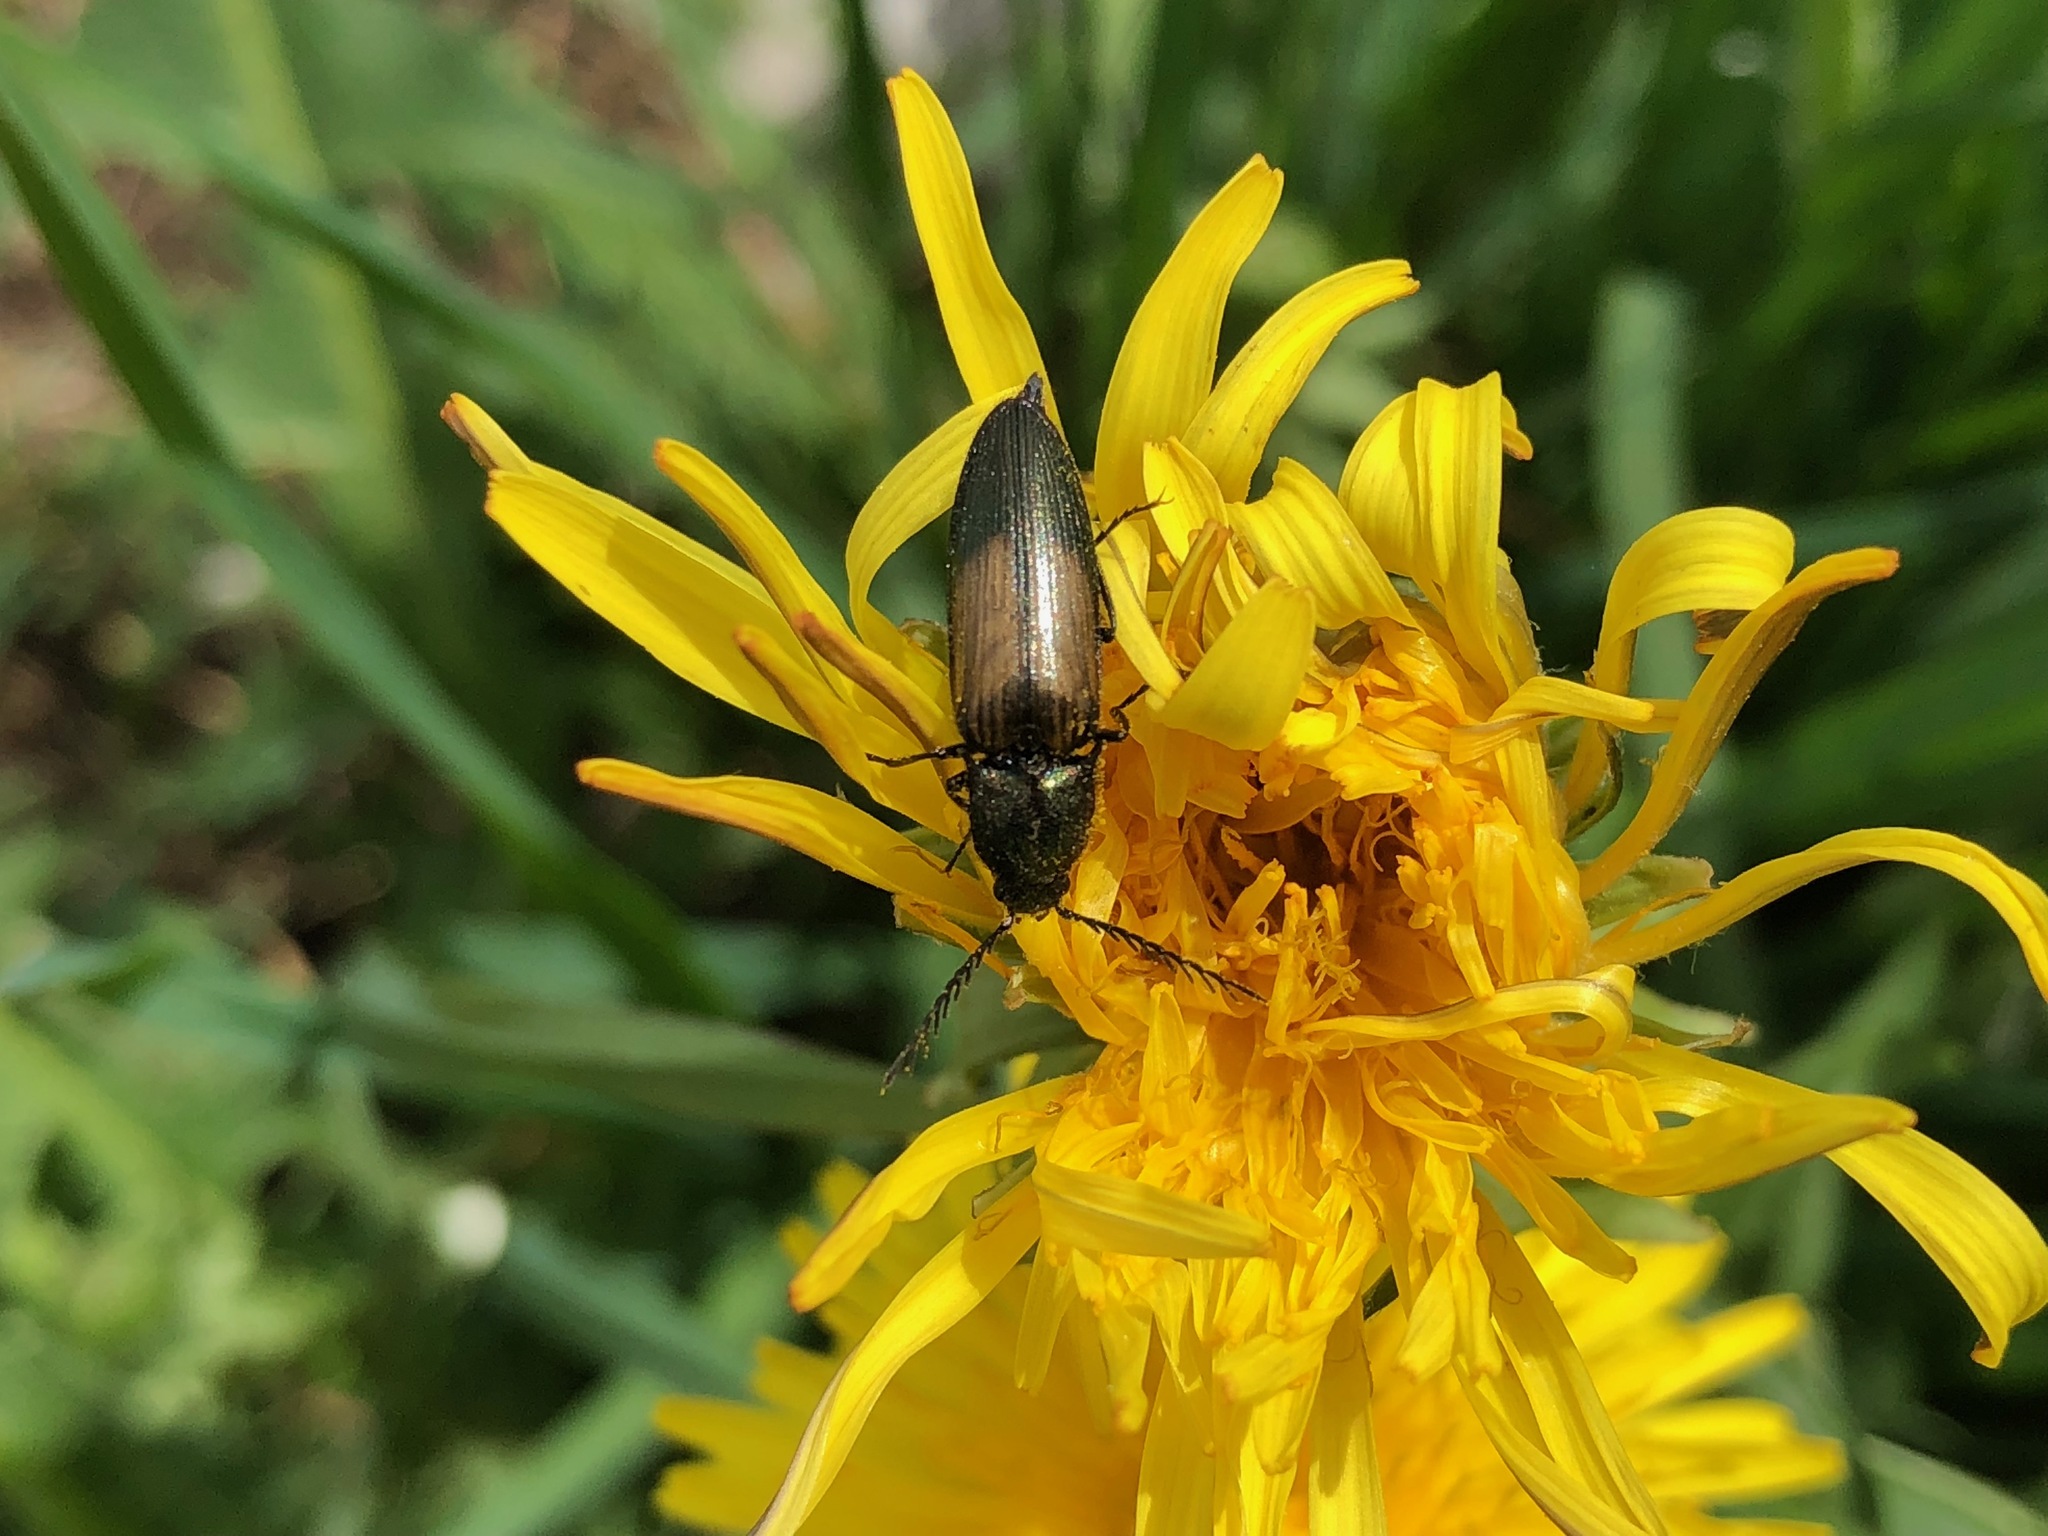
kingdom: Animalia
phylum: Arthropoda
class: Insecta
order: Coleoptera
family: Elateridae
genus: Ctenicera
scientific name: Ctenicera cuprea
